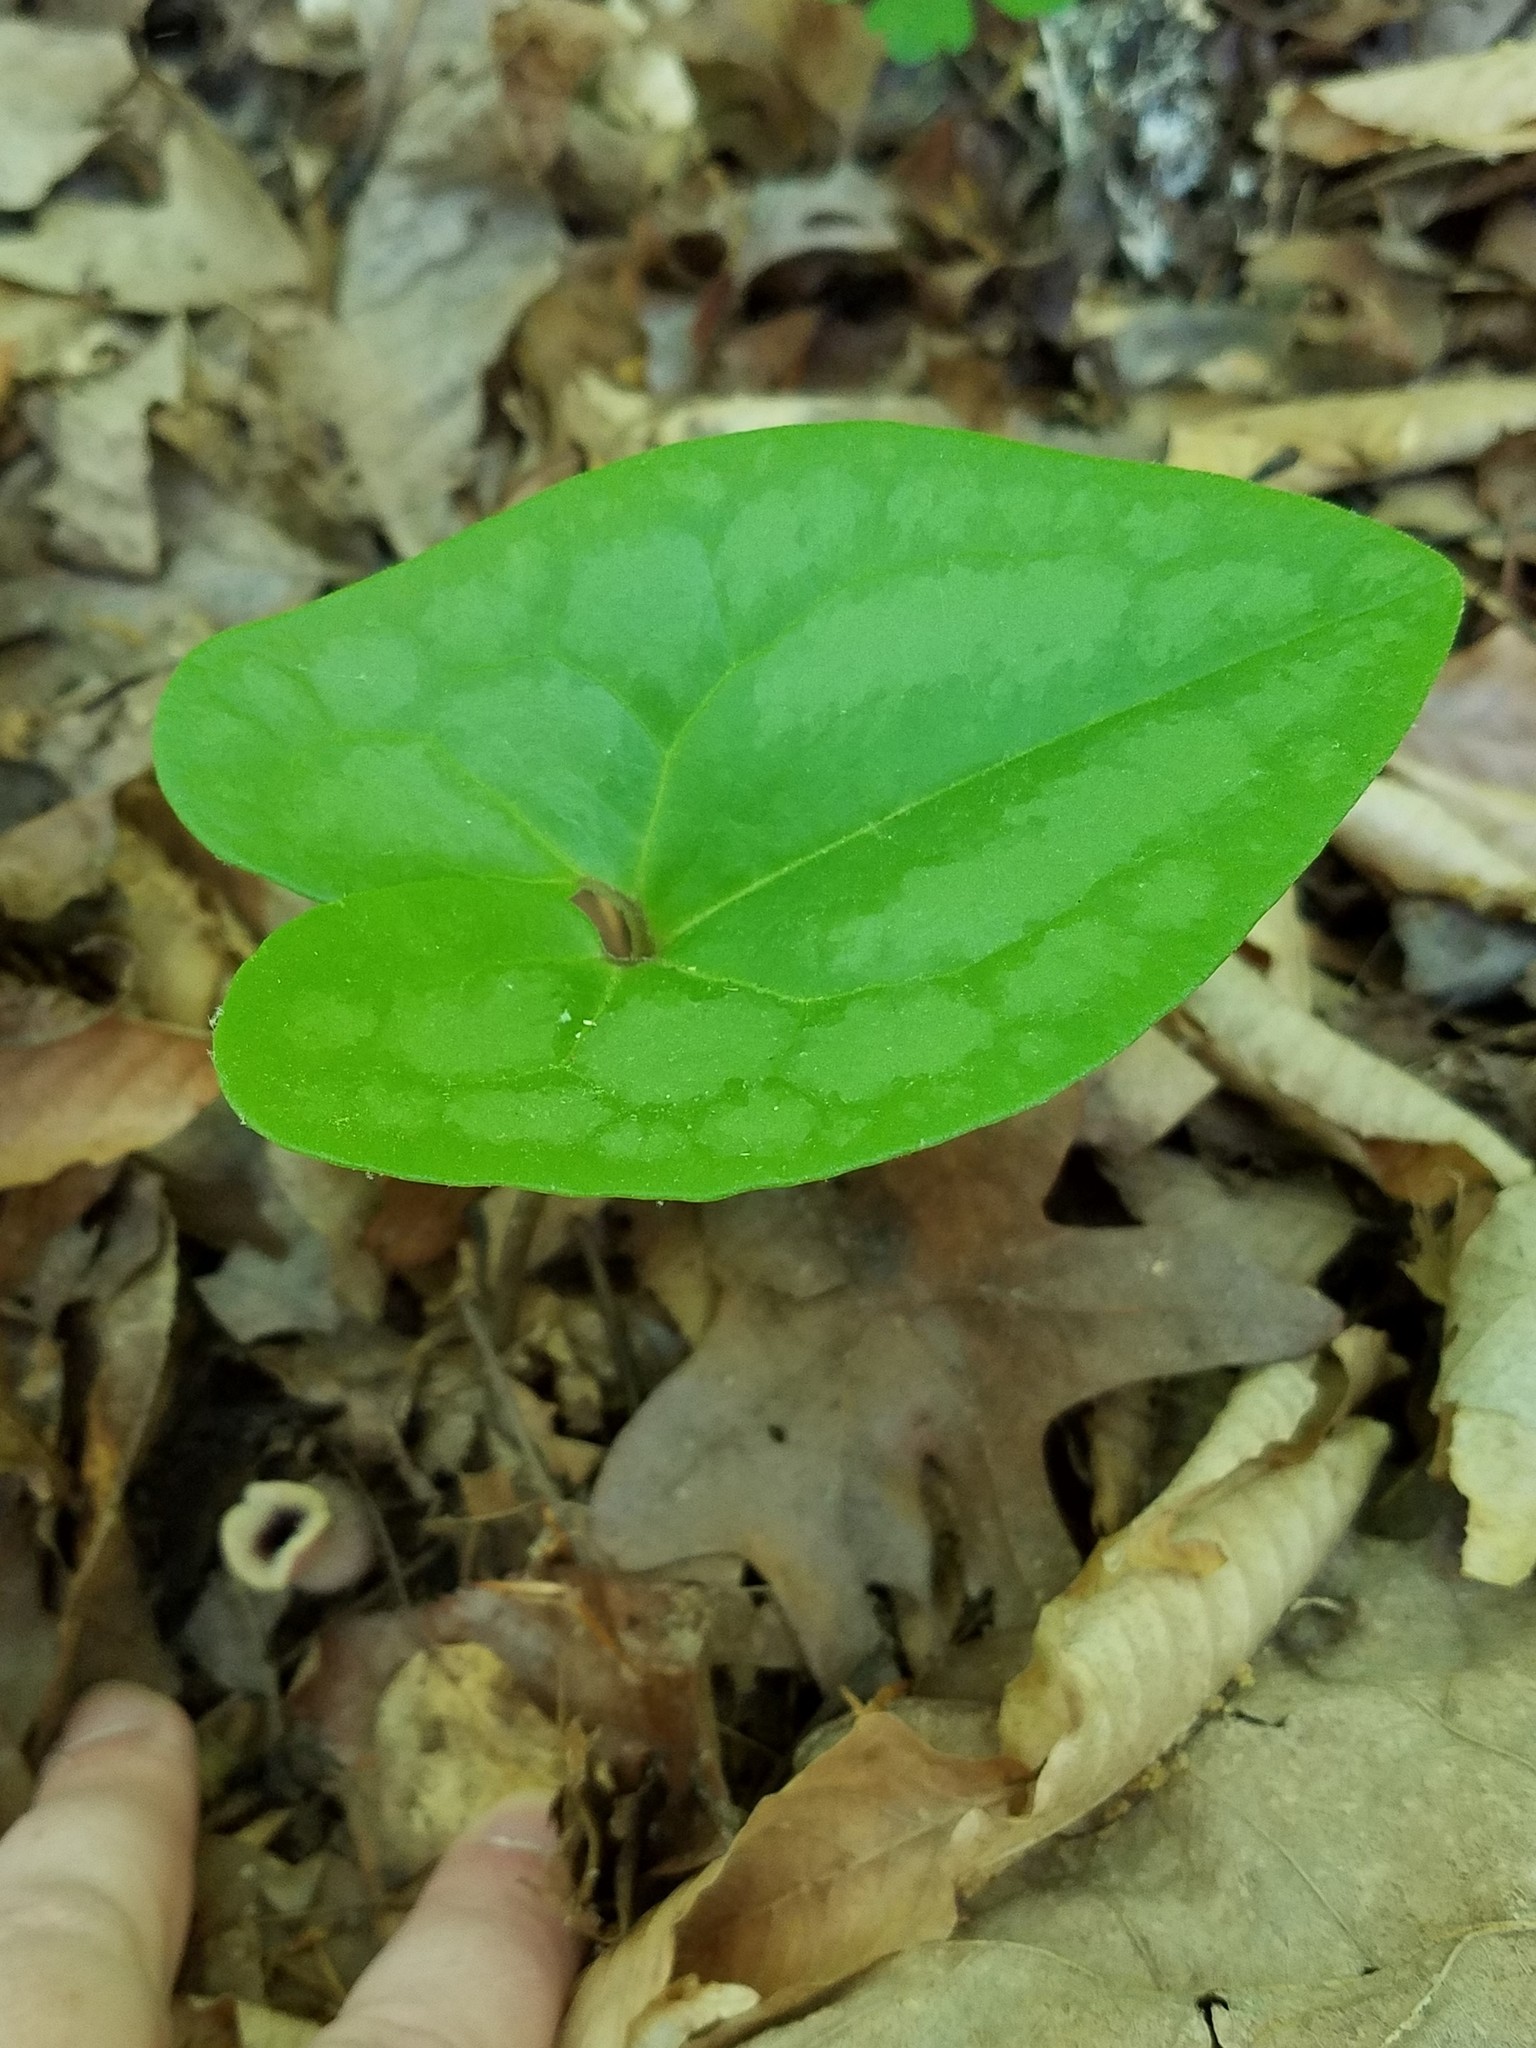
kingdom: Plantae
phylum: Tracheophyta
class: Magnoliopsida
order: Piperales
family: Aristolochiaceae
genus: Hexastylis
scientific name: Hexastylis arifolia
